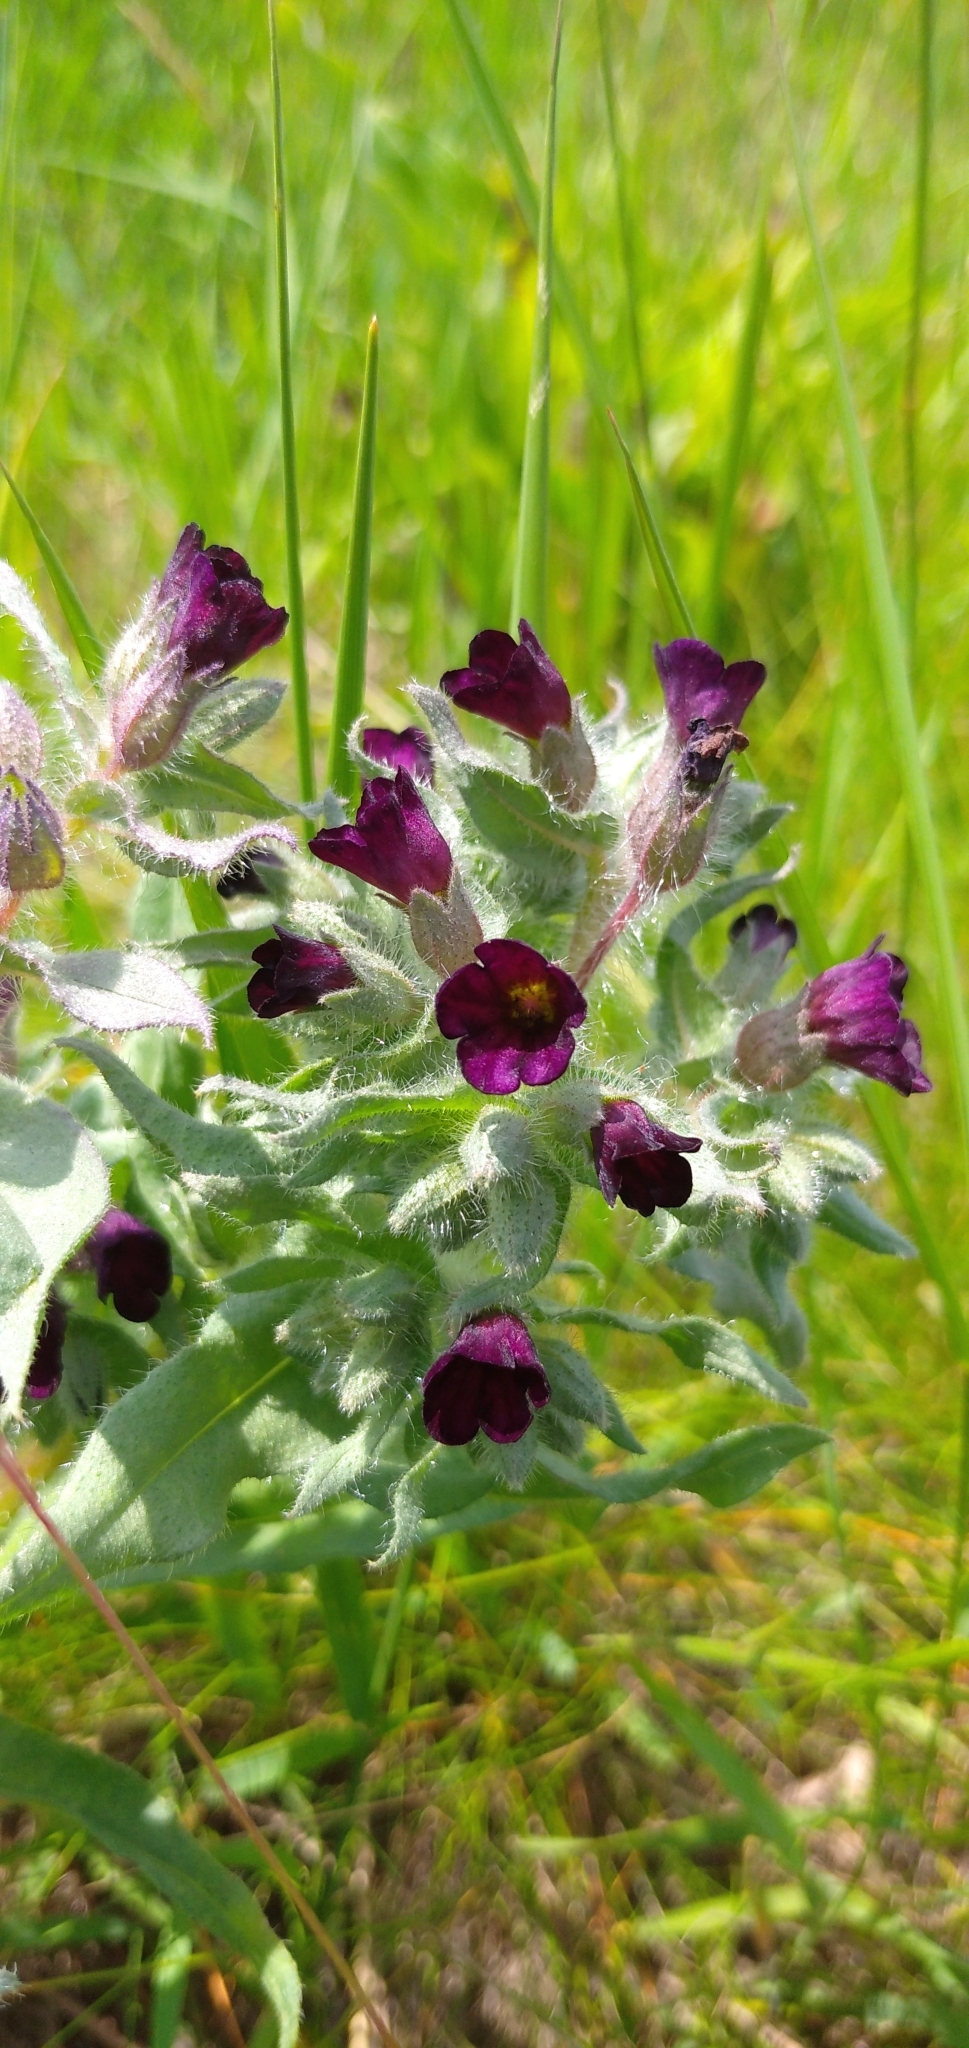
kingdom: Plantae
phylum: Tracheophyta
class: Magnoliopsida
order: Boraginales
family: Boraginaceae
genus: Nonea
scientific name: Nonea pulla
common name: Brown nonea
